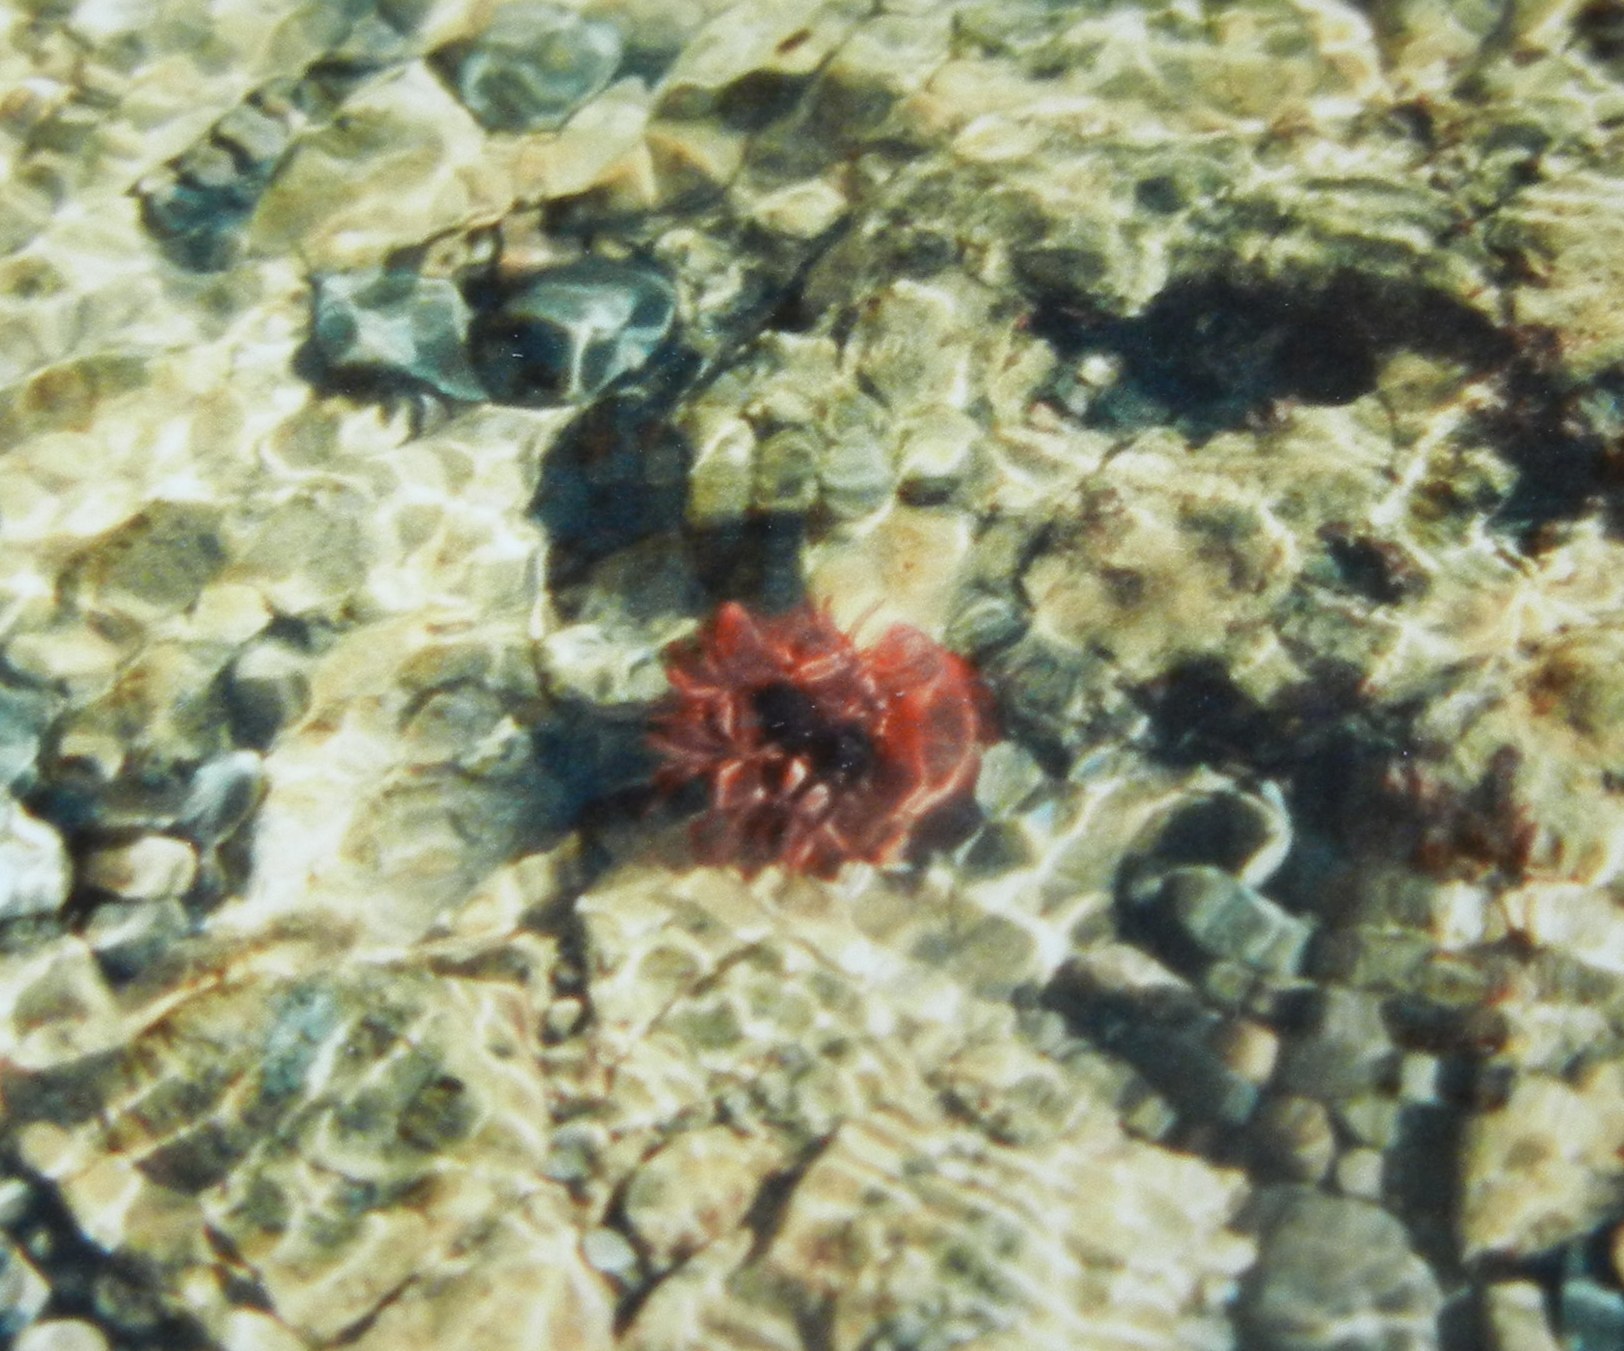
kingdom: Animalia
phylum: Cnidaria
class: Anthozoa
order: Actiniaria
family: Actiniidae
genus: Actinia
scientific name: Actinia equina
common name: Beadlet anemone
